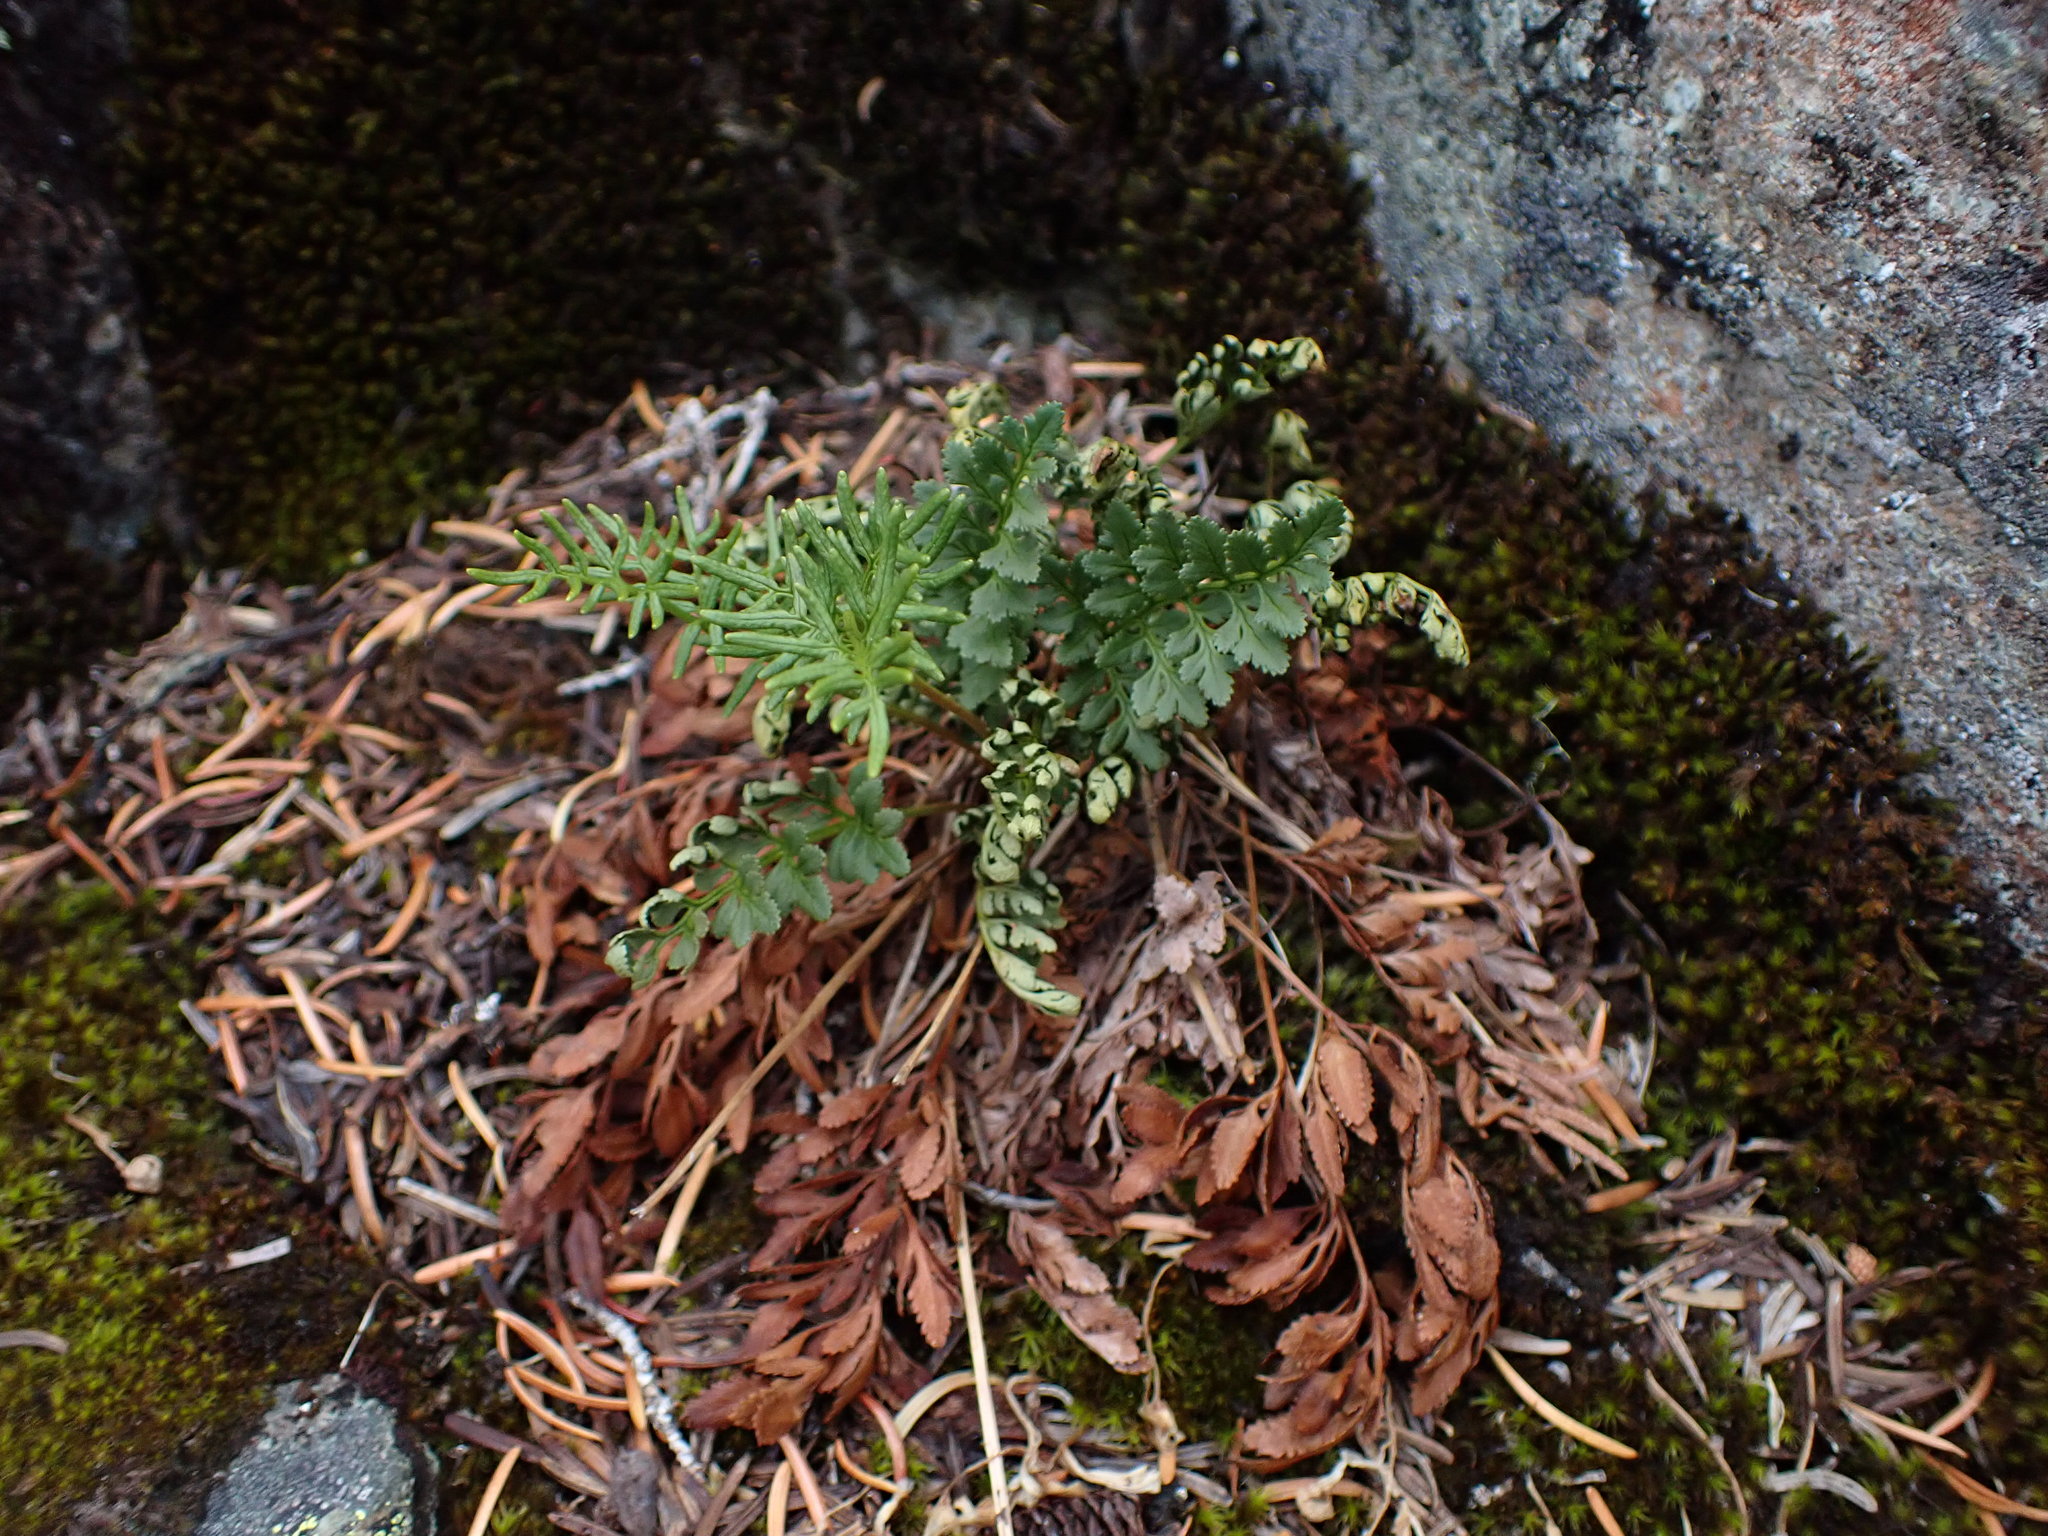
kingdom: Plantae
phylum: Tracheophyta
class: Polypodiopsida
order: Polypodiales
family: Pteridaceae
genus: Cryptogramma
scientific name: Cryptogramma acrostichoides
